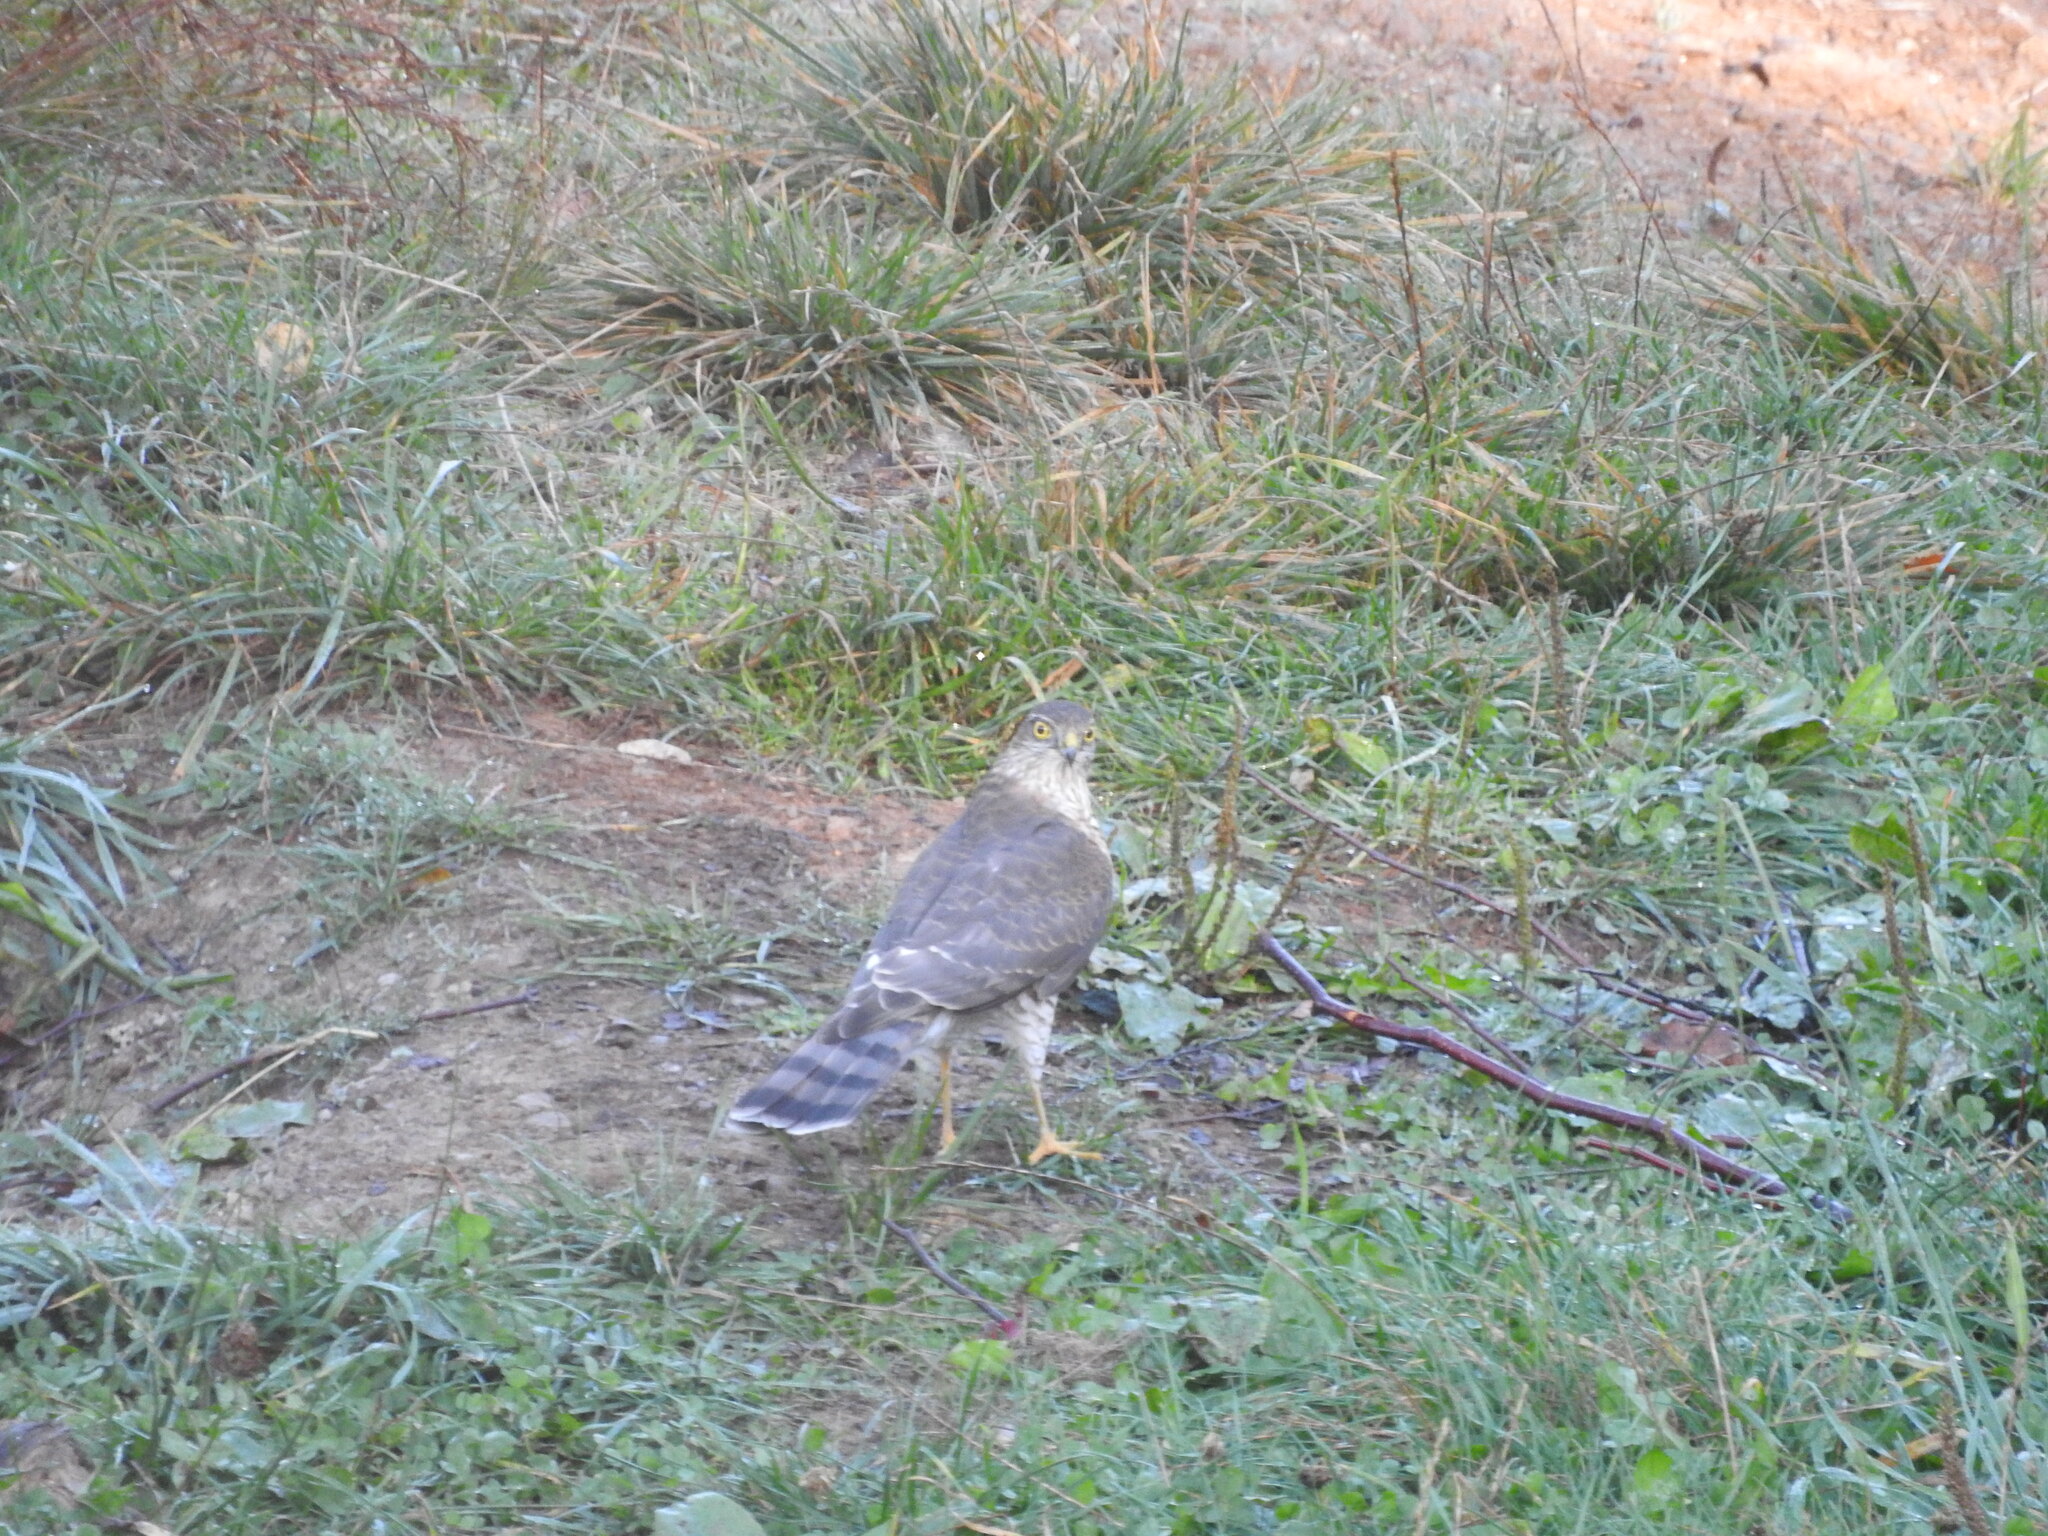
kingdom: Animalia
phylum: Chordata
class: Aves
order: Accipitriformes
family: Accipitridae
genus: Accipiter
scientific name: Accipiter nisus
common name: Eurasian sparrowhawk
